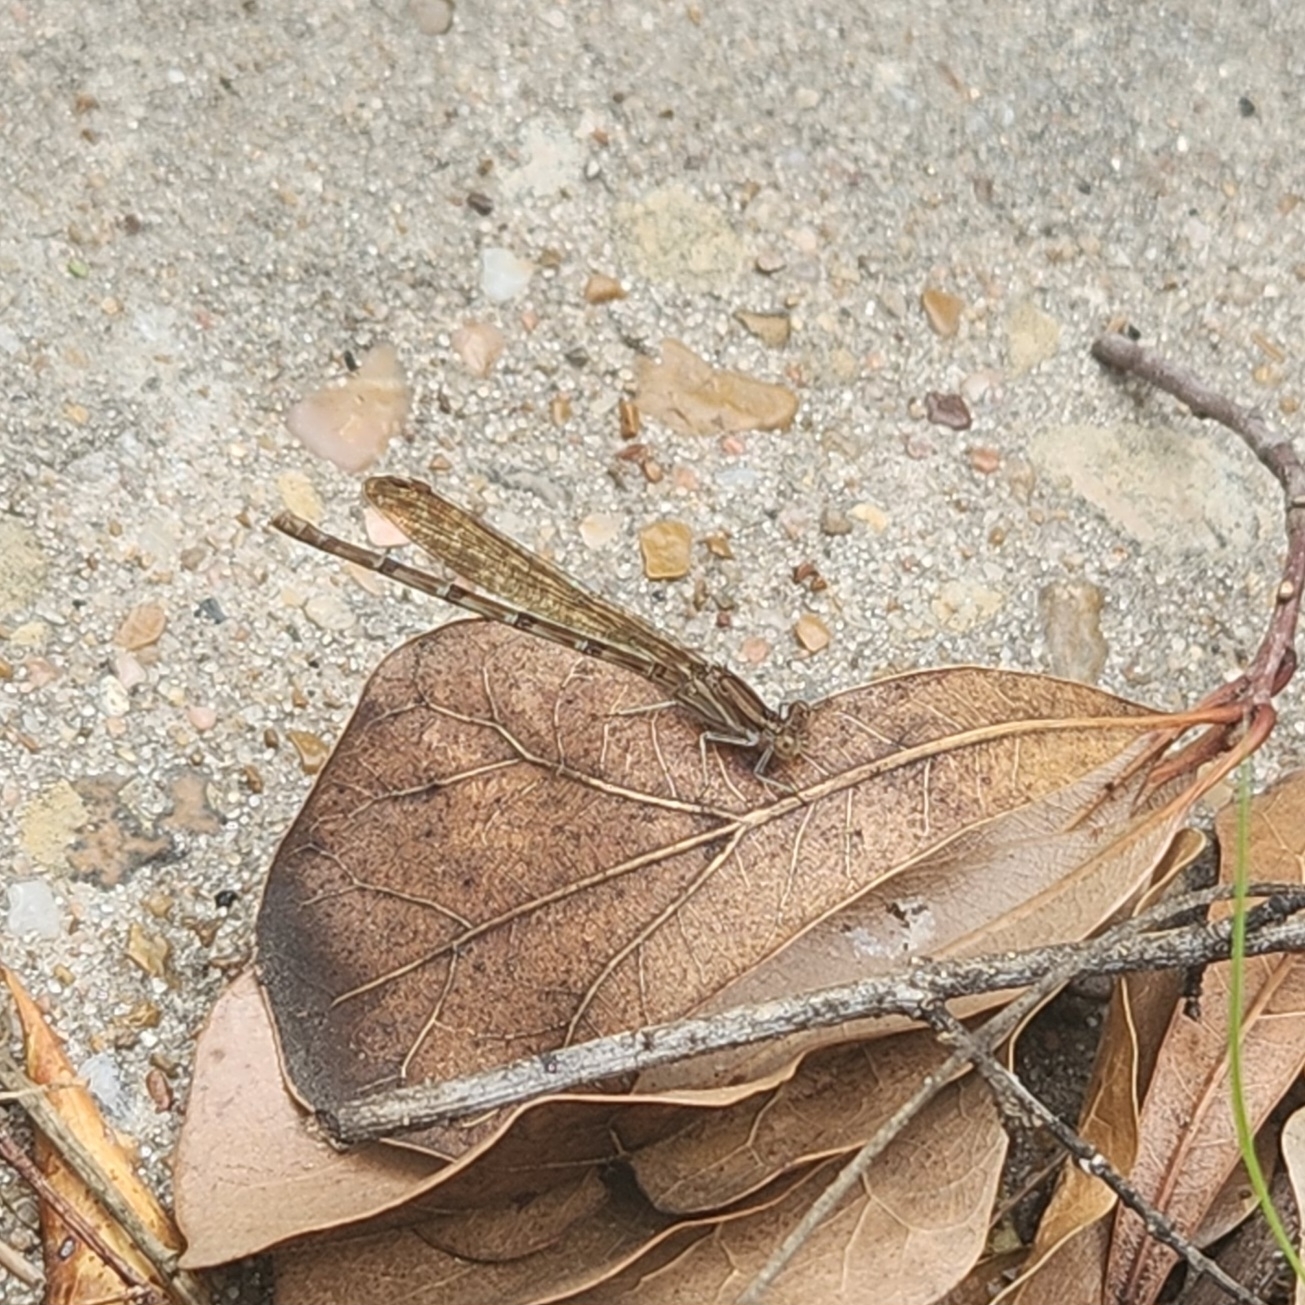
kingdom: Animalia
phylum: Arthropoda
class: Insecta
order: Odonata
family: Coenagrionidae
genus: Argia
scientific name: Argia sedula
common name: Blue-ringed dancer
